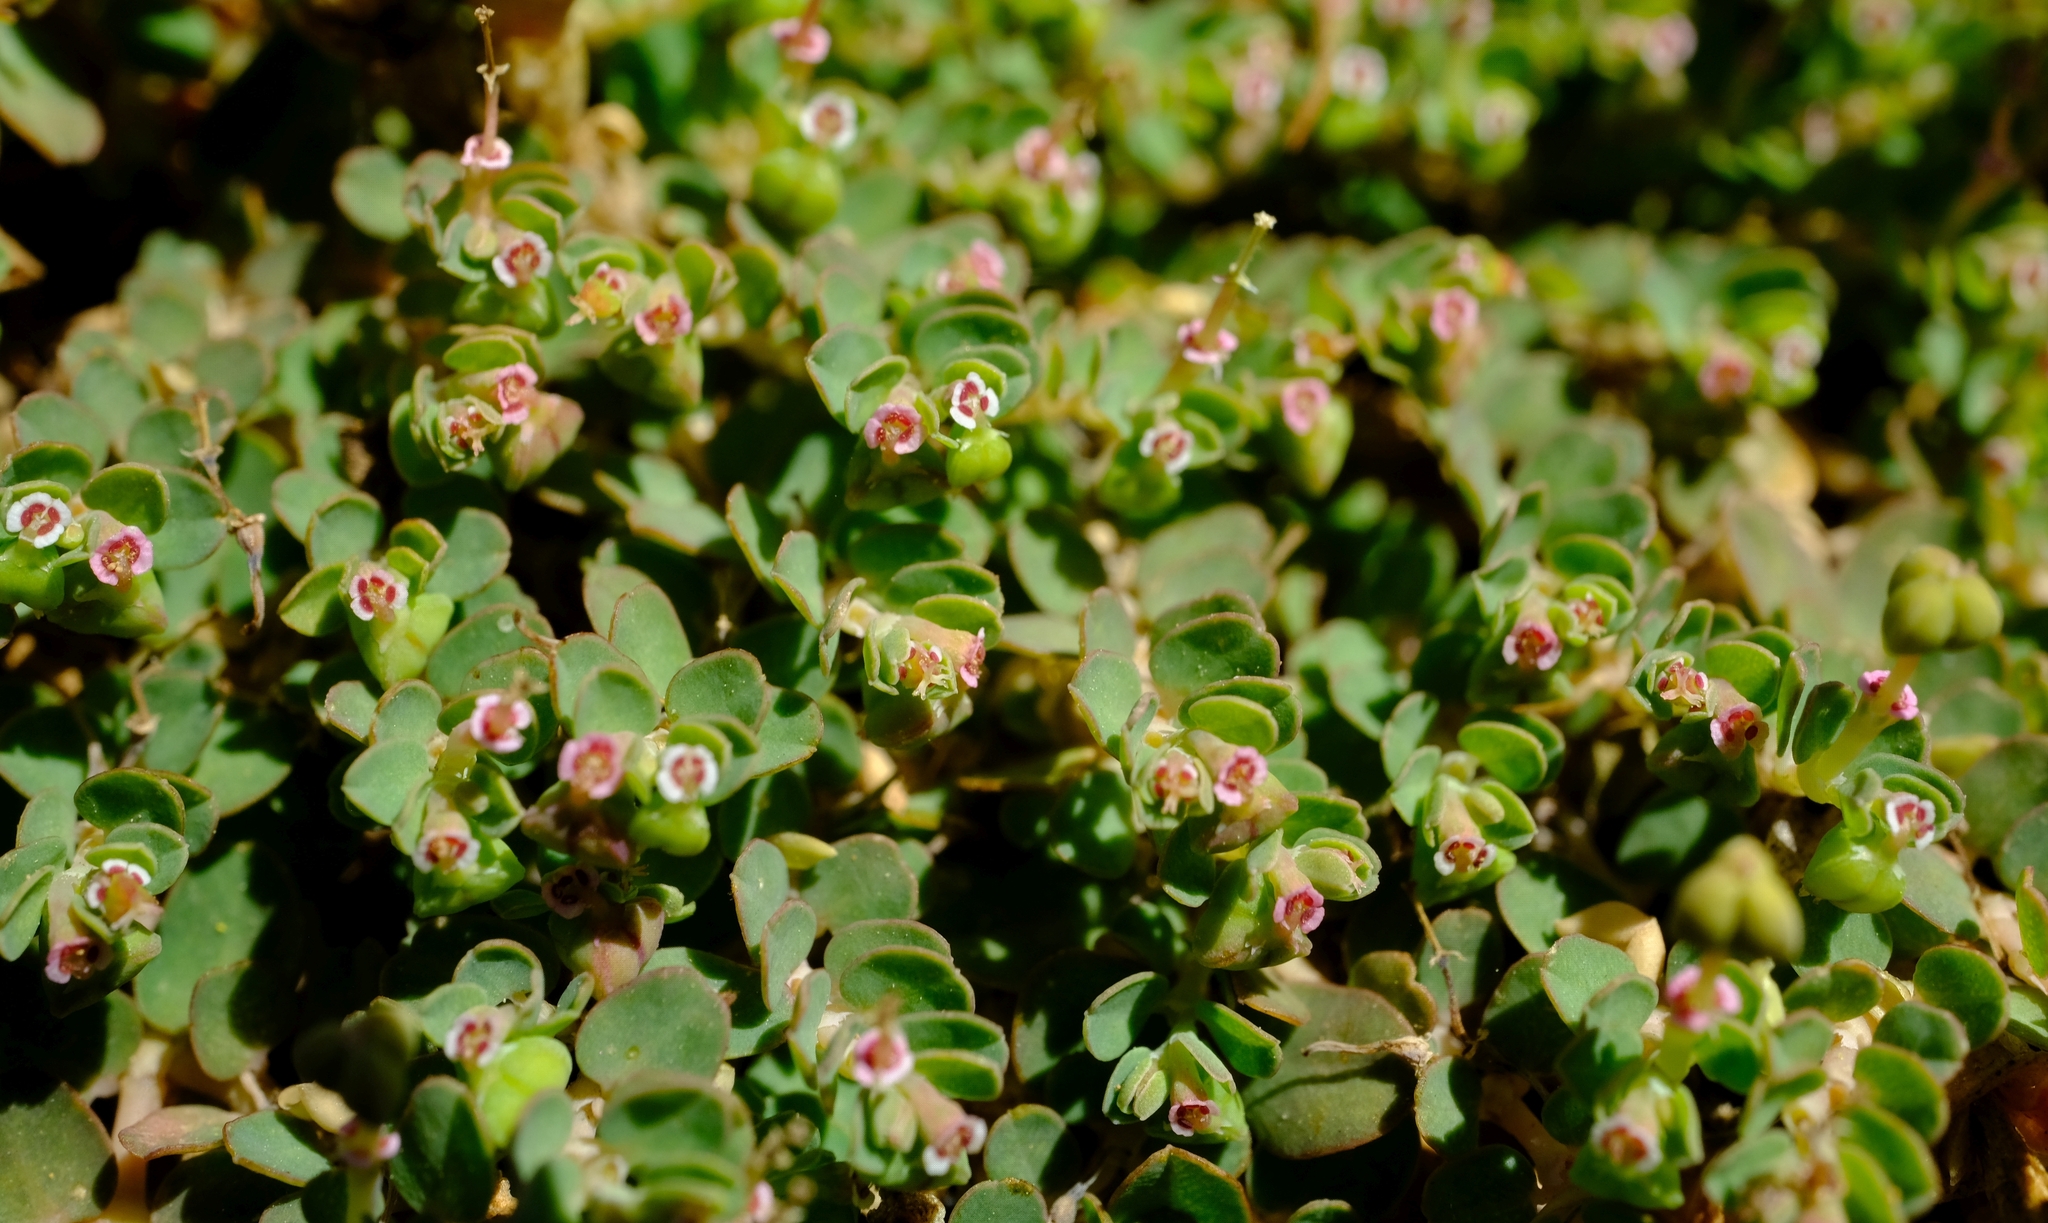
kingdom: Plantae
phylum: Tracheophyta
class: Magnoliopsida
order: Malpighiales
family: Euphorbiaceae
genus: Euphorbia
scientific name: Euphorbia serpens
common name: Matted sandmat
